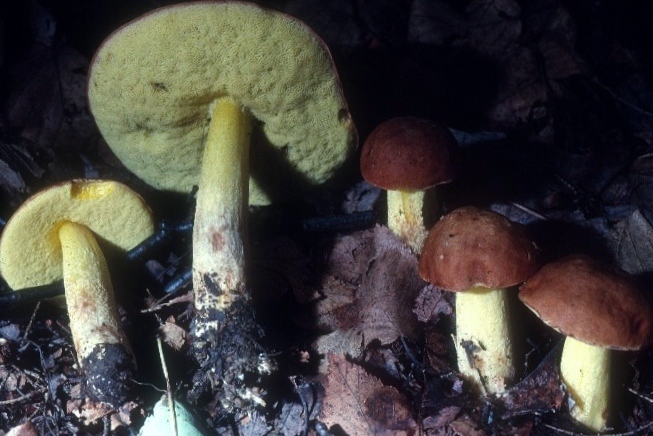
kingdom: Fungi
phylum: Basidiomycota
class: Agaricomycetes
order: Boletales
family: Boletaceae
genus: Hemileccinum
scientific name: Hemileccinum subglabripes
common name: Smoothish-stemmed bolete
